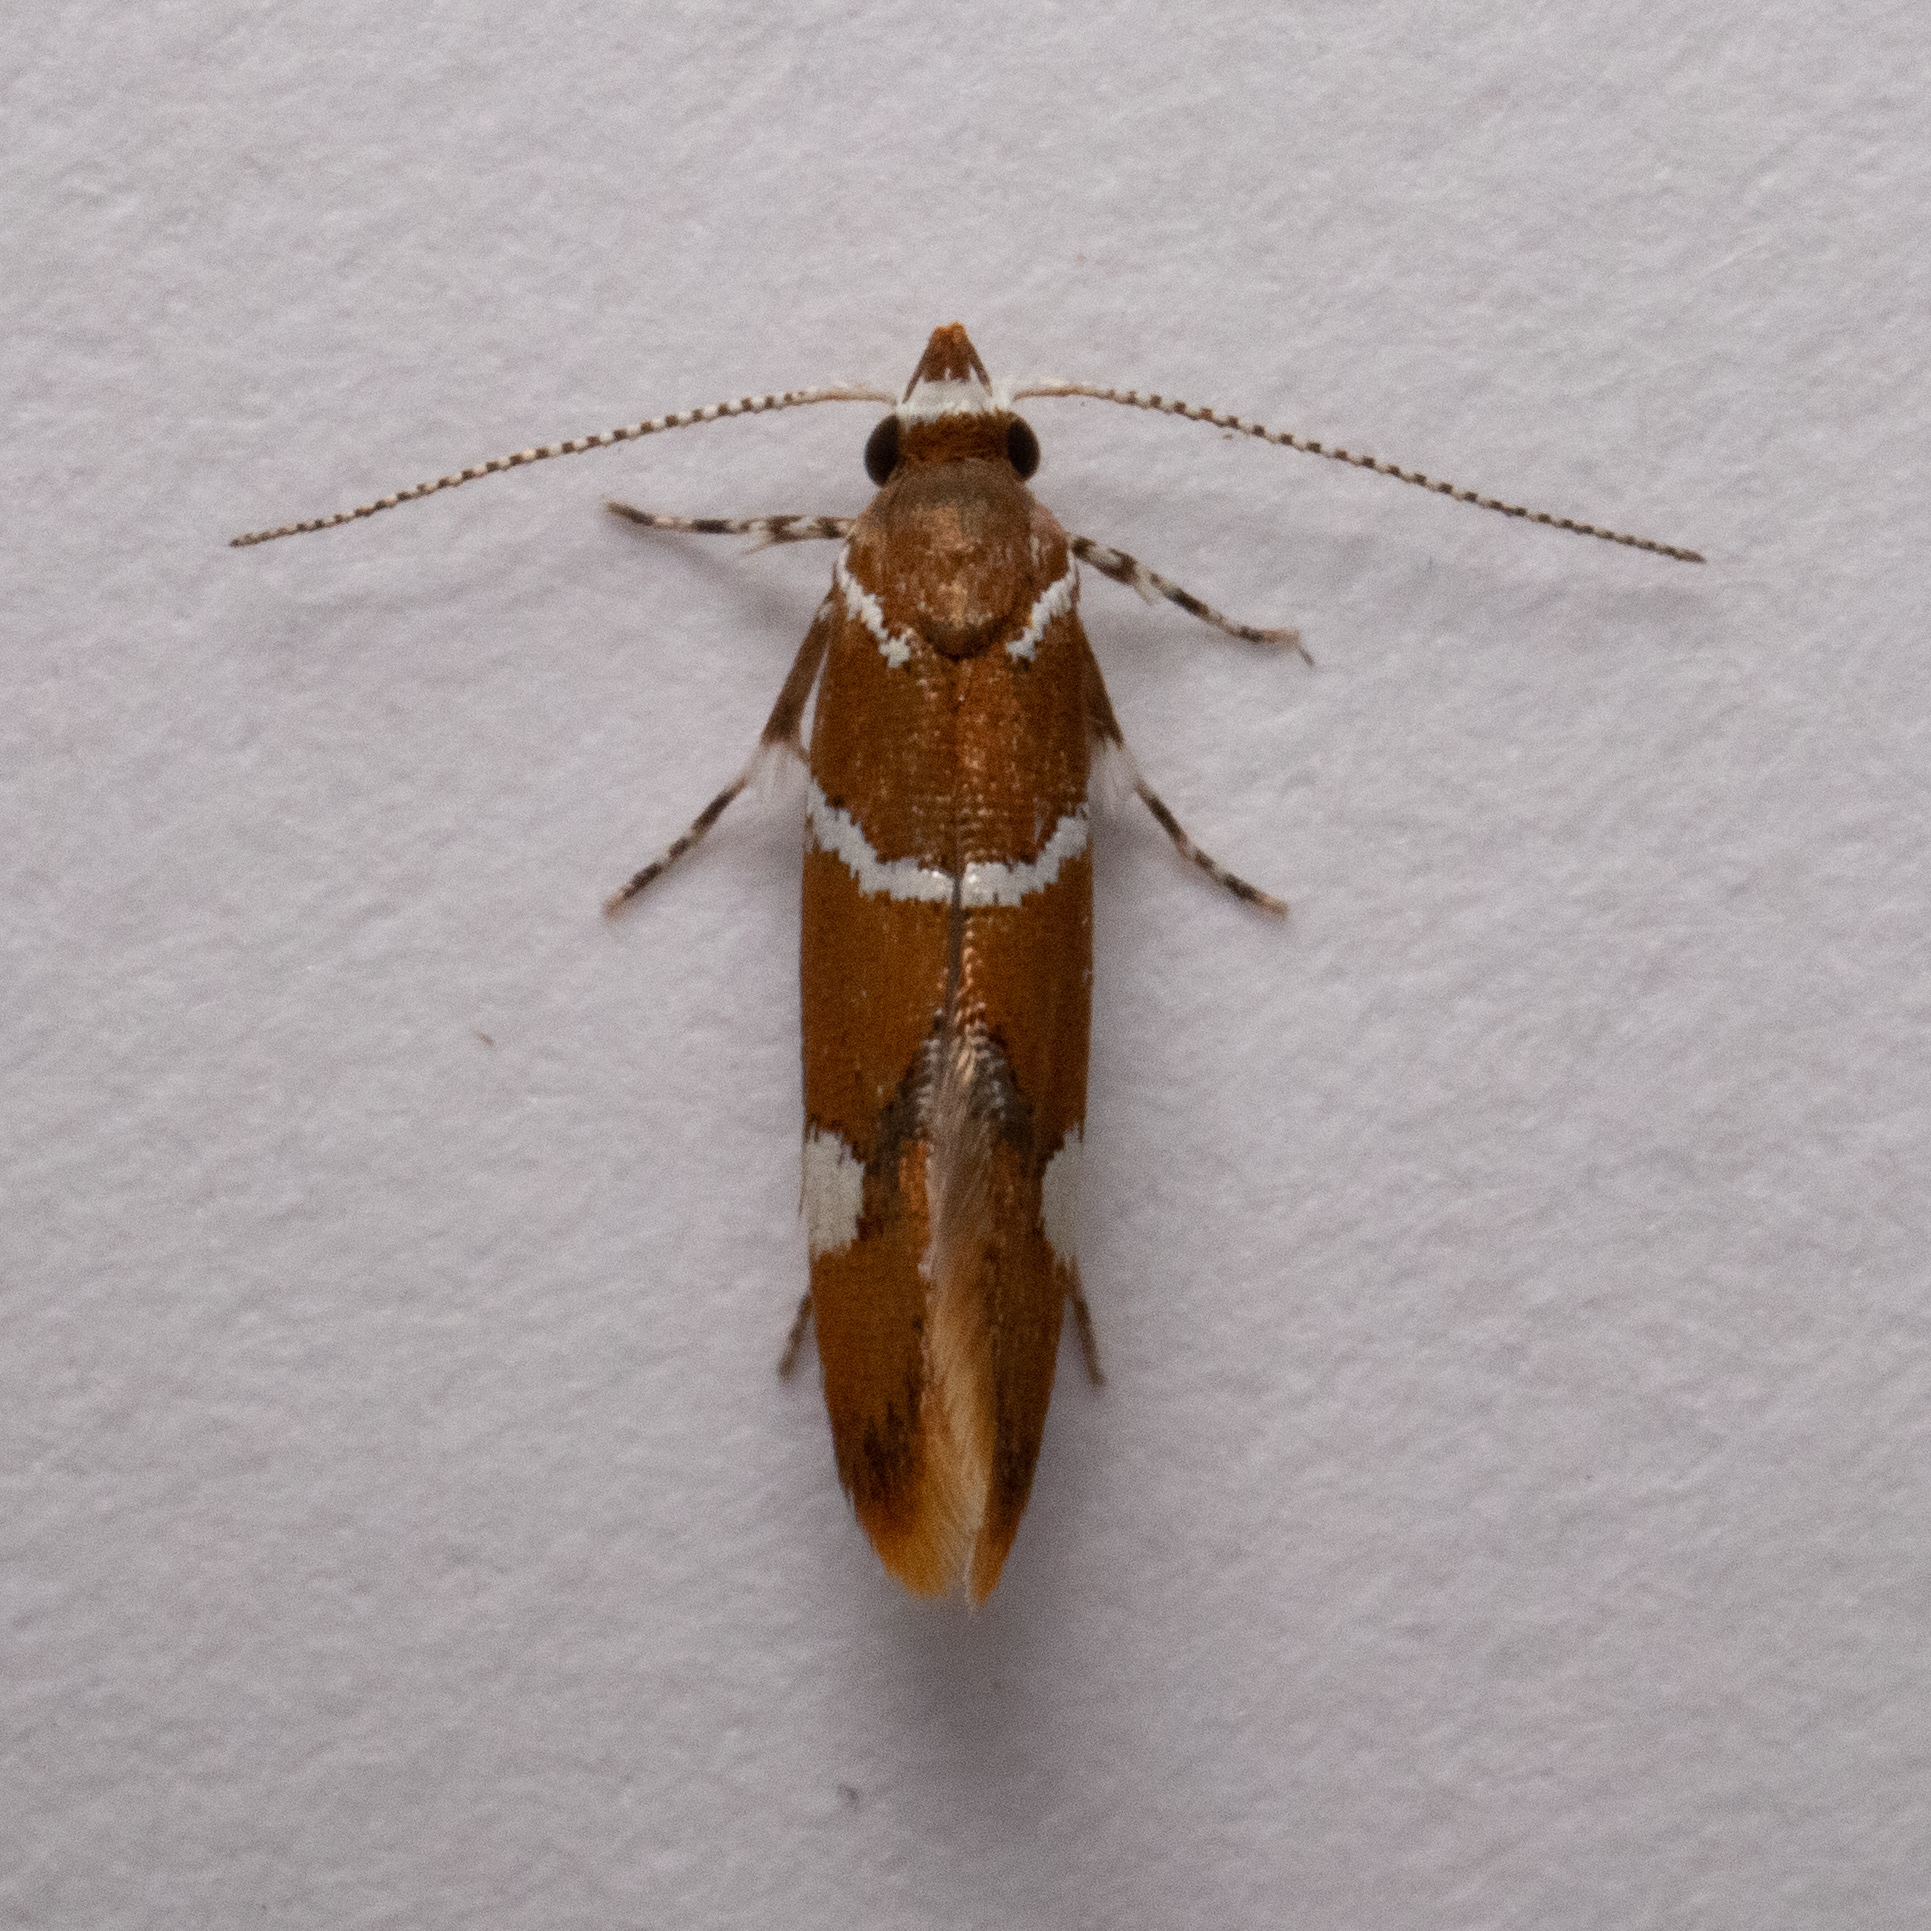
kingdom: Animalia
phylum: Arthropoda
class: Insecta
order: Lepidoptera
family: Oecophoridae
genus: Promalactis
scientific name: Promalactis suzukiella
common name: Moth
